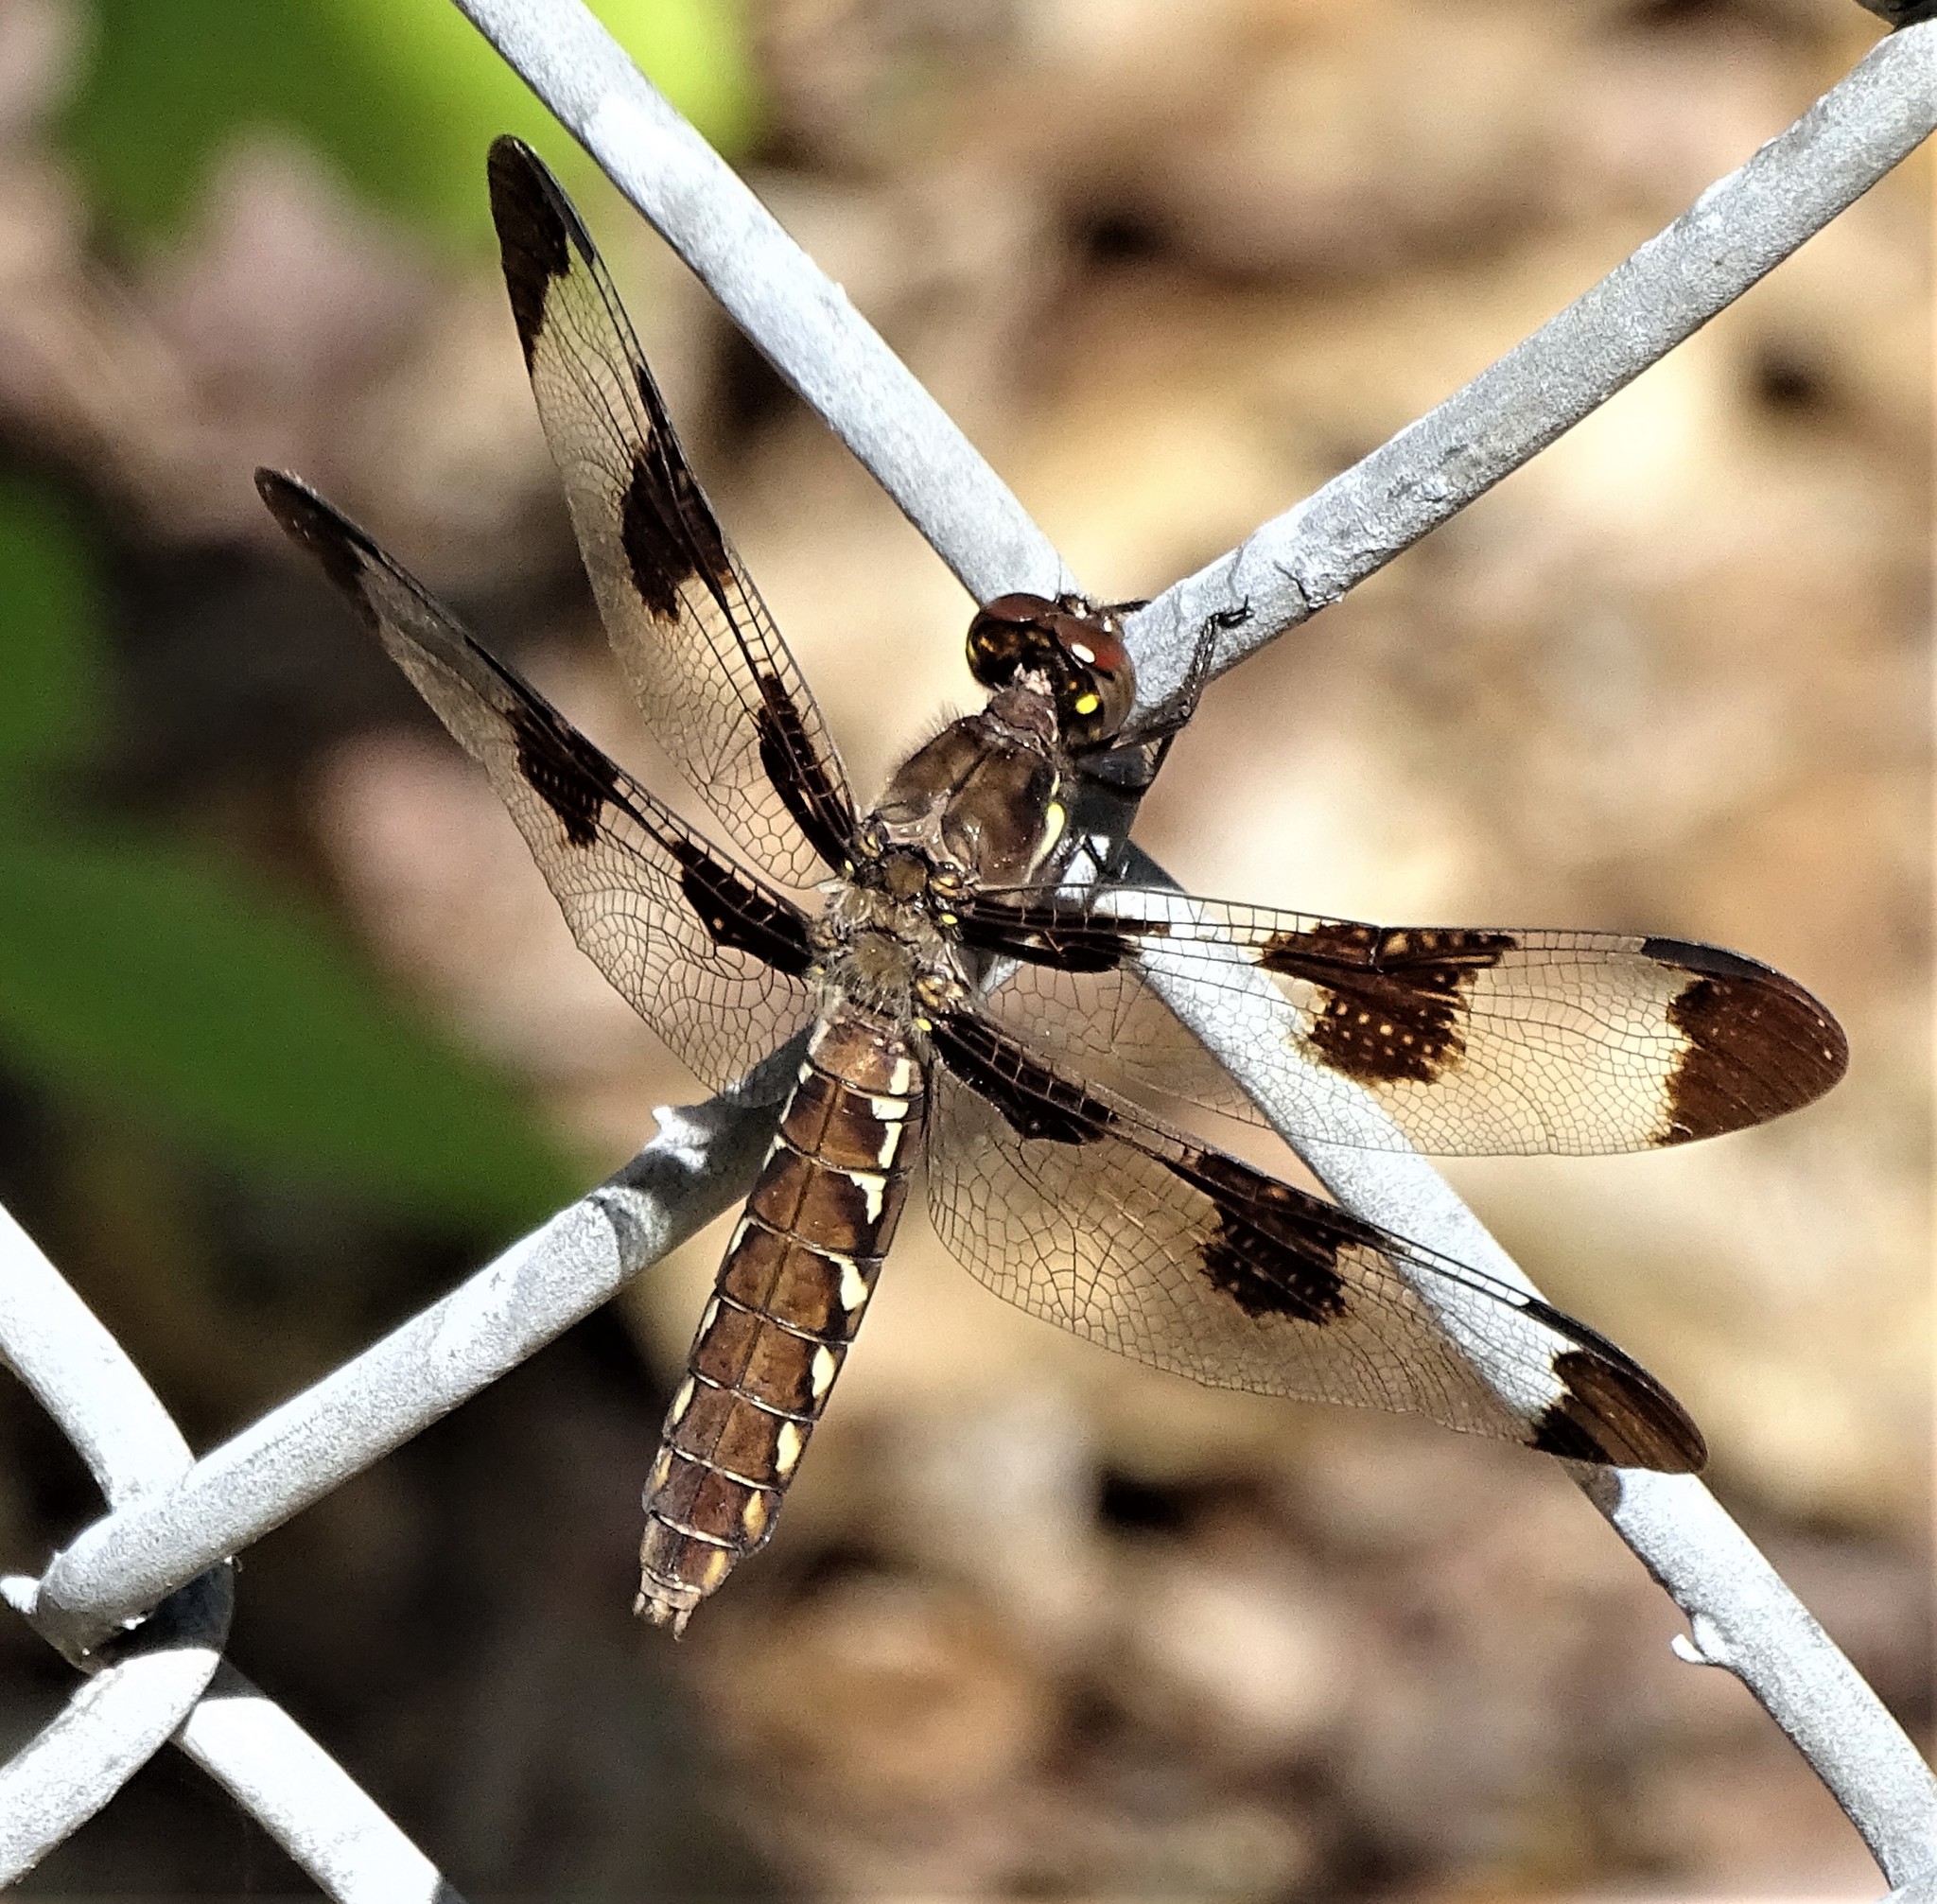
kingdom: Animalia
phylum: Arthropoda
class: Insecta
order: Odonata
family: Libellulidae
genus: Plathemis
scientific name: Plathemis lydia
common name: Common whitetail
